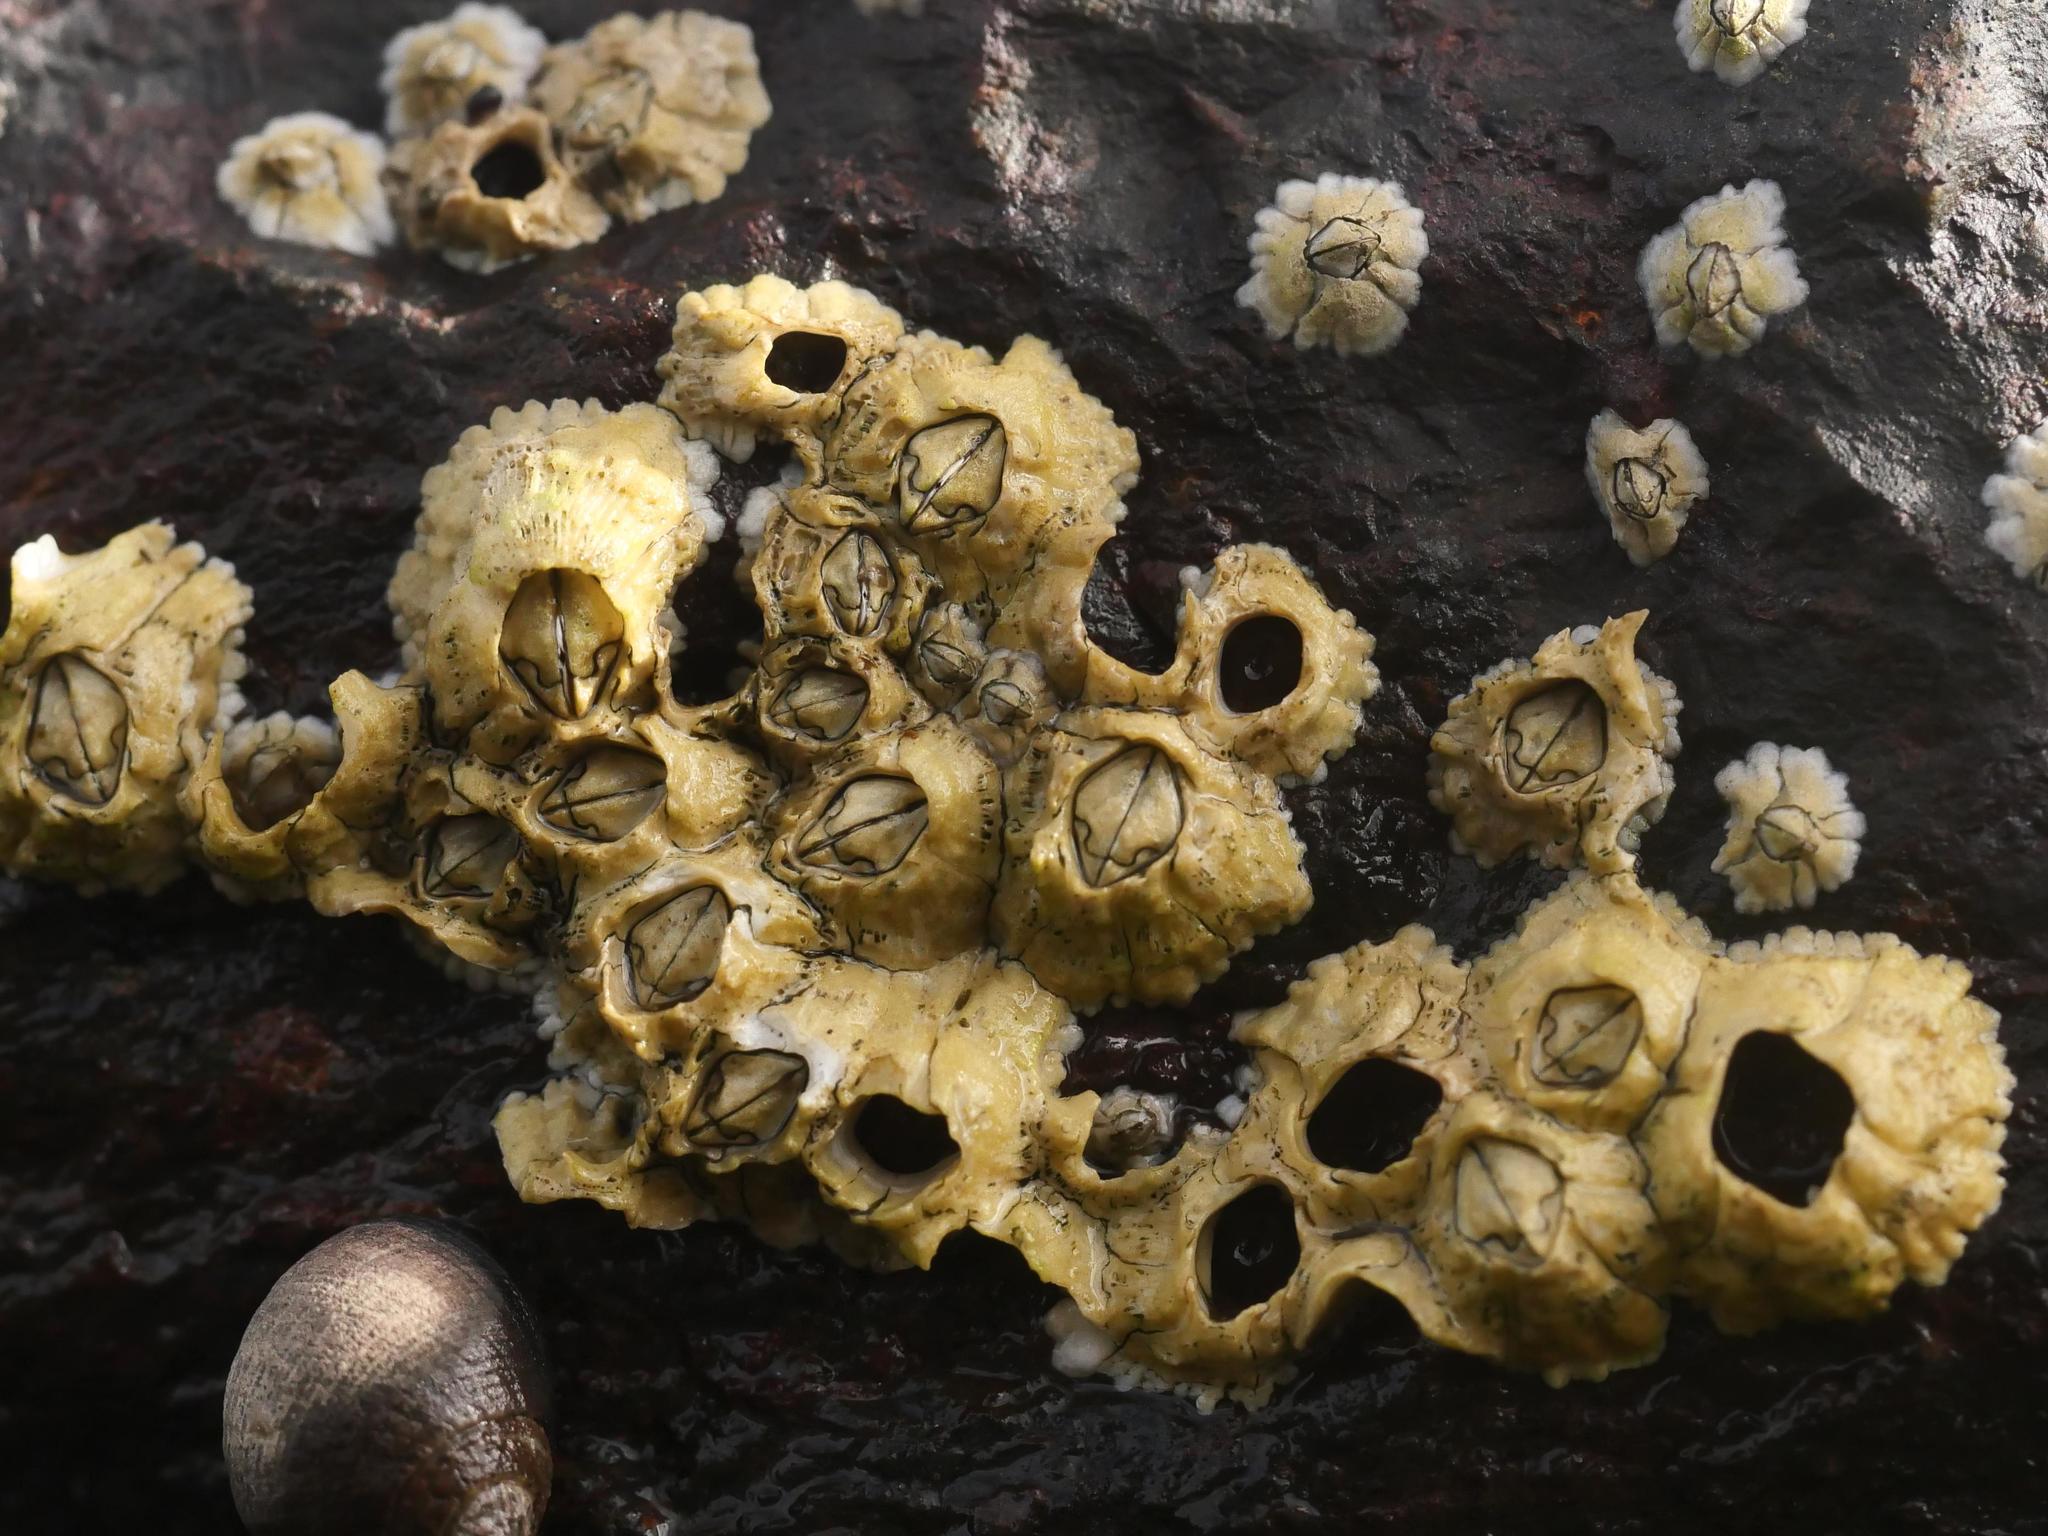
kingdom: Animalia
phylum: Arthropoda
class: Maxillopoda
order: Sessilia
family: Archaeobalanidae
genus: Semibalanus
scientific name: Semibalanus balanoides
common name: Acorn barnacle
